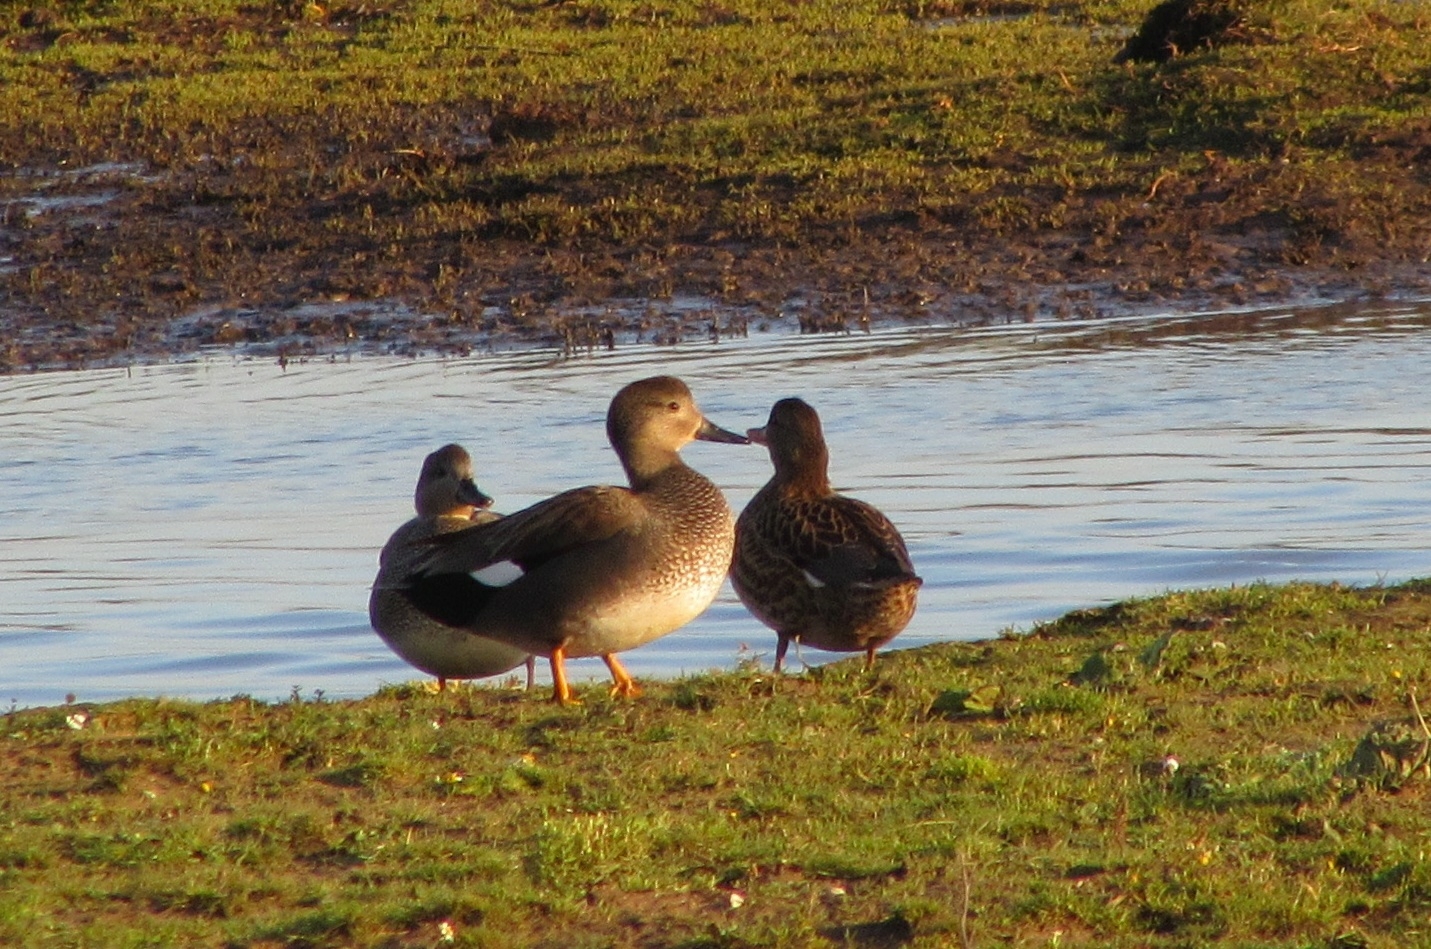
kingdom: Animalia
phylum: Chordata
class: Aves
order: Anseriformes
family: Anatidae
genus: Mareca
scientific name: Mareca strepera
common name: Gadwall
